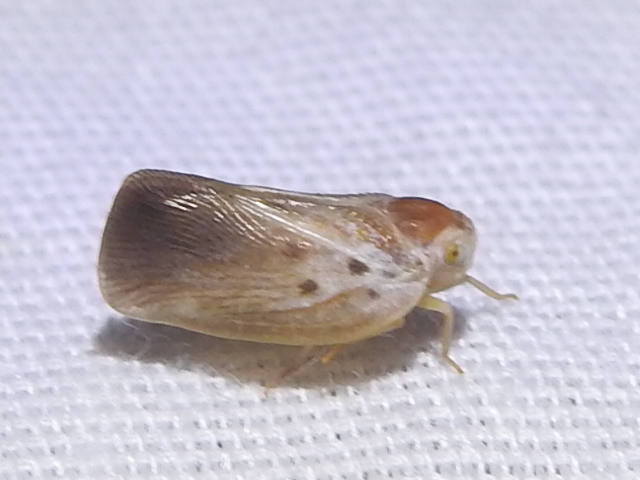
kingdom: Animalia
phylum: Arthropoda
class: Insecta
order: Hemiptera
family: Flatidae
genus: Metcalfa
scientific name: Metcalfa pruinosa
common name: Citrus flatid planthopper
